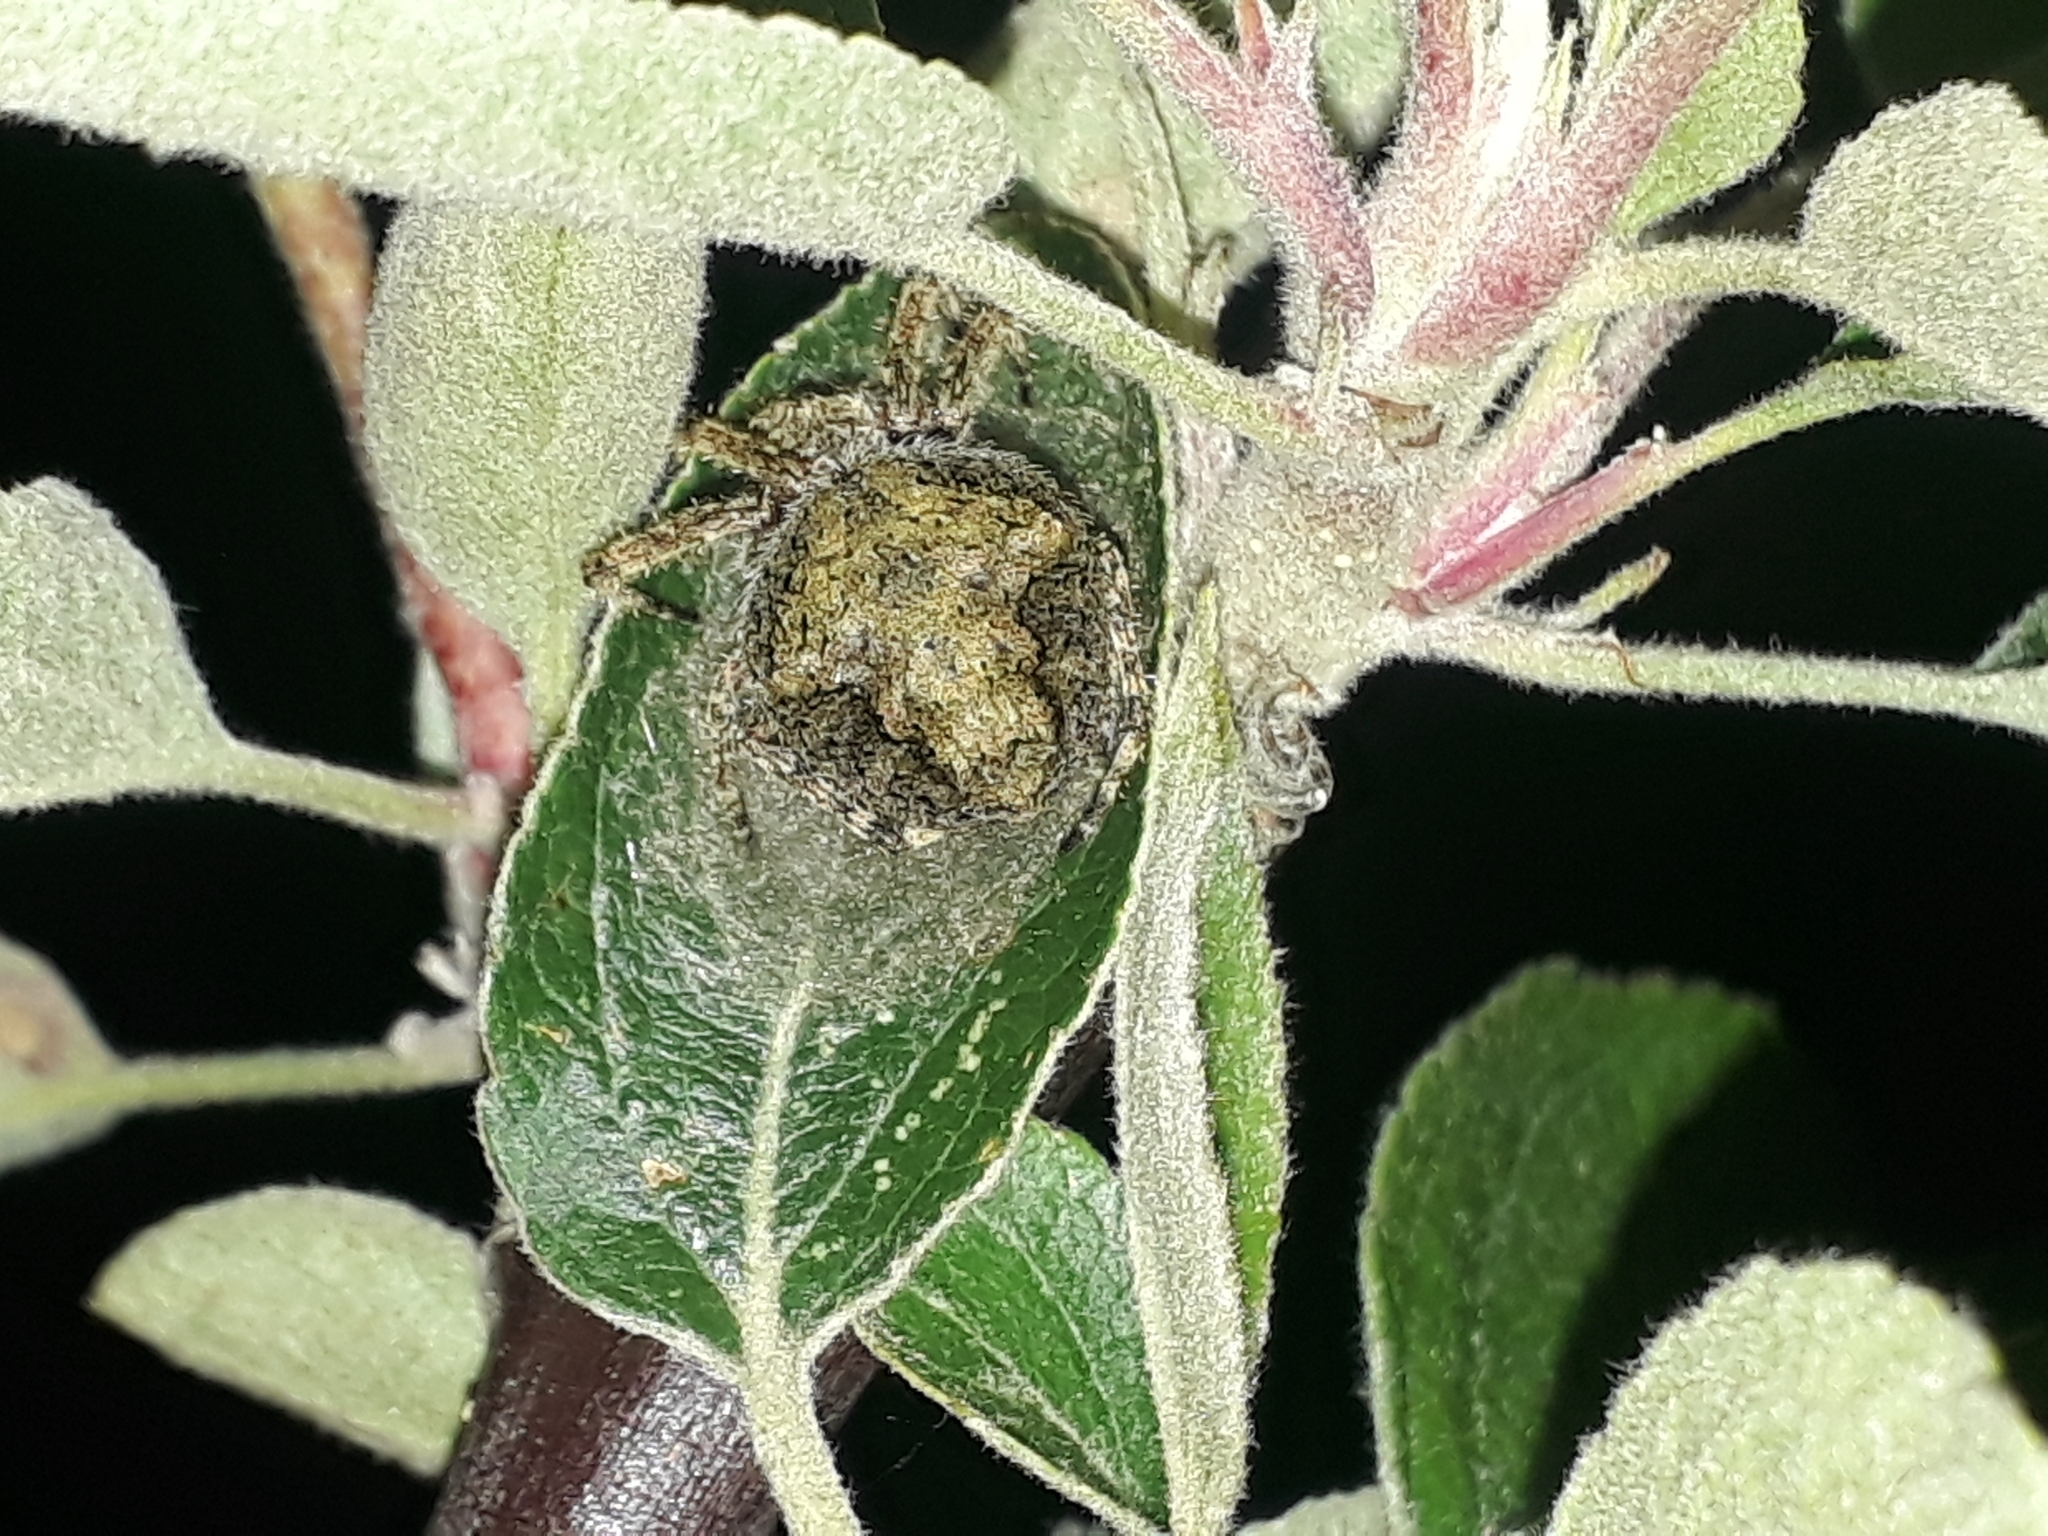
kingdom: Animalia
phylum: Arthropoda
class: Arachnida
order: Araneae
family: Araneidae
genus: Eriophora
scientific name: Eriophora pustulosa
